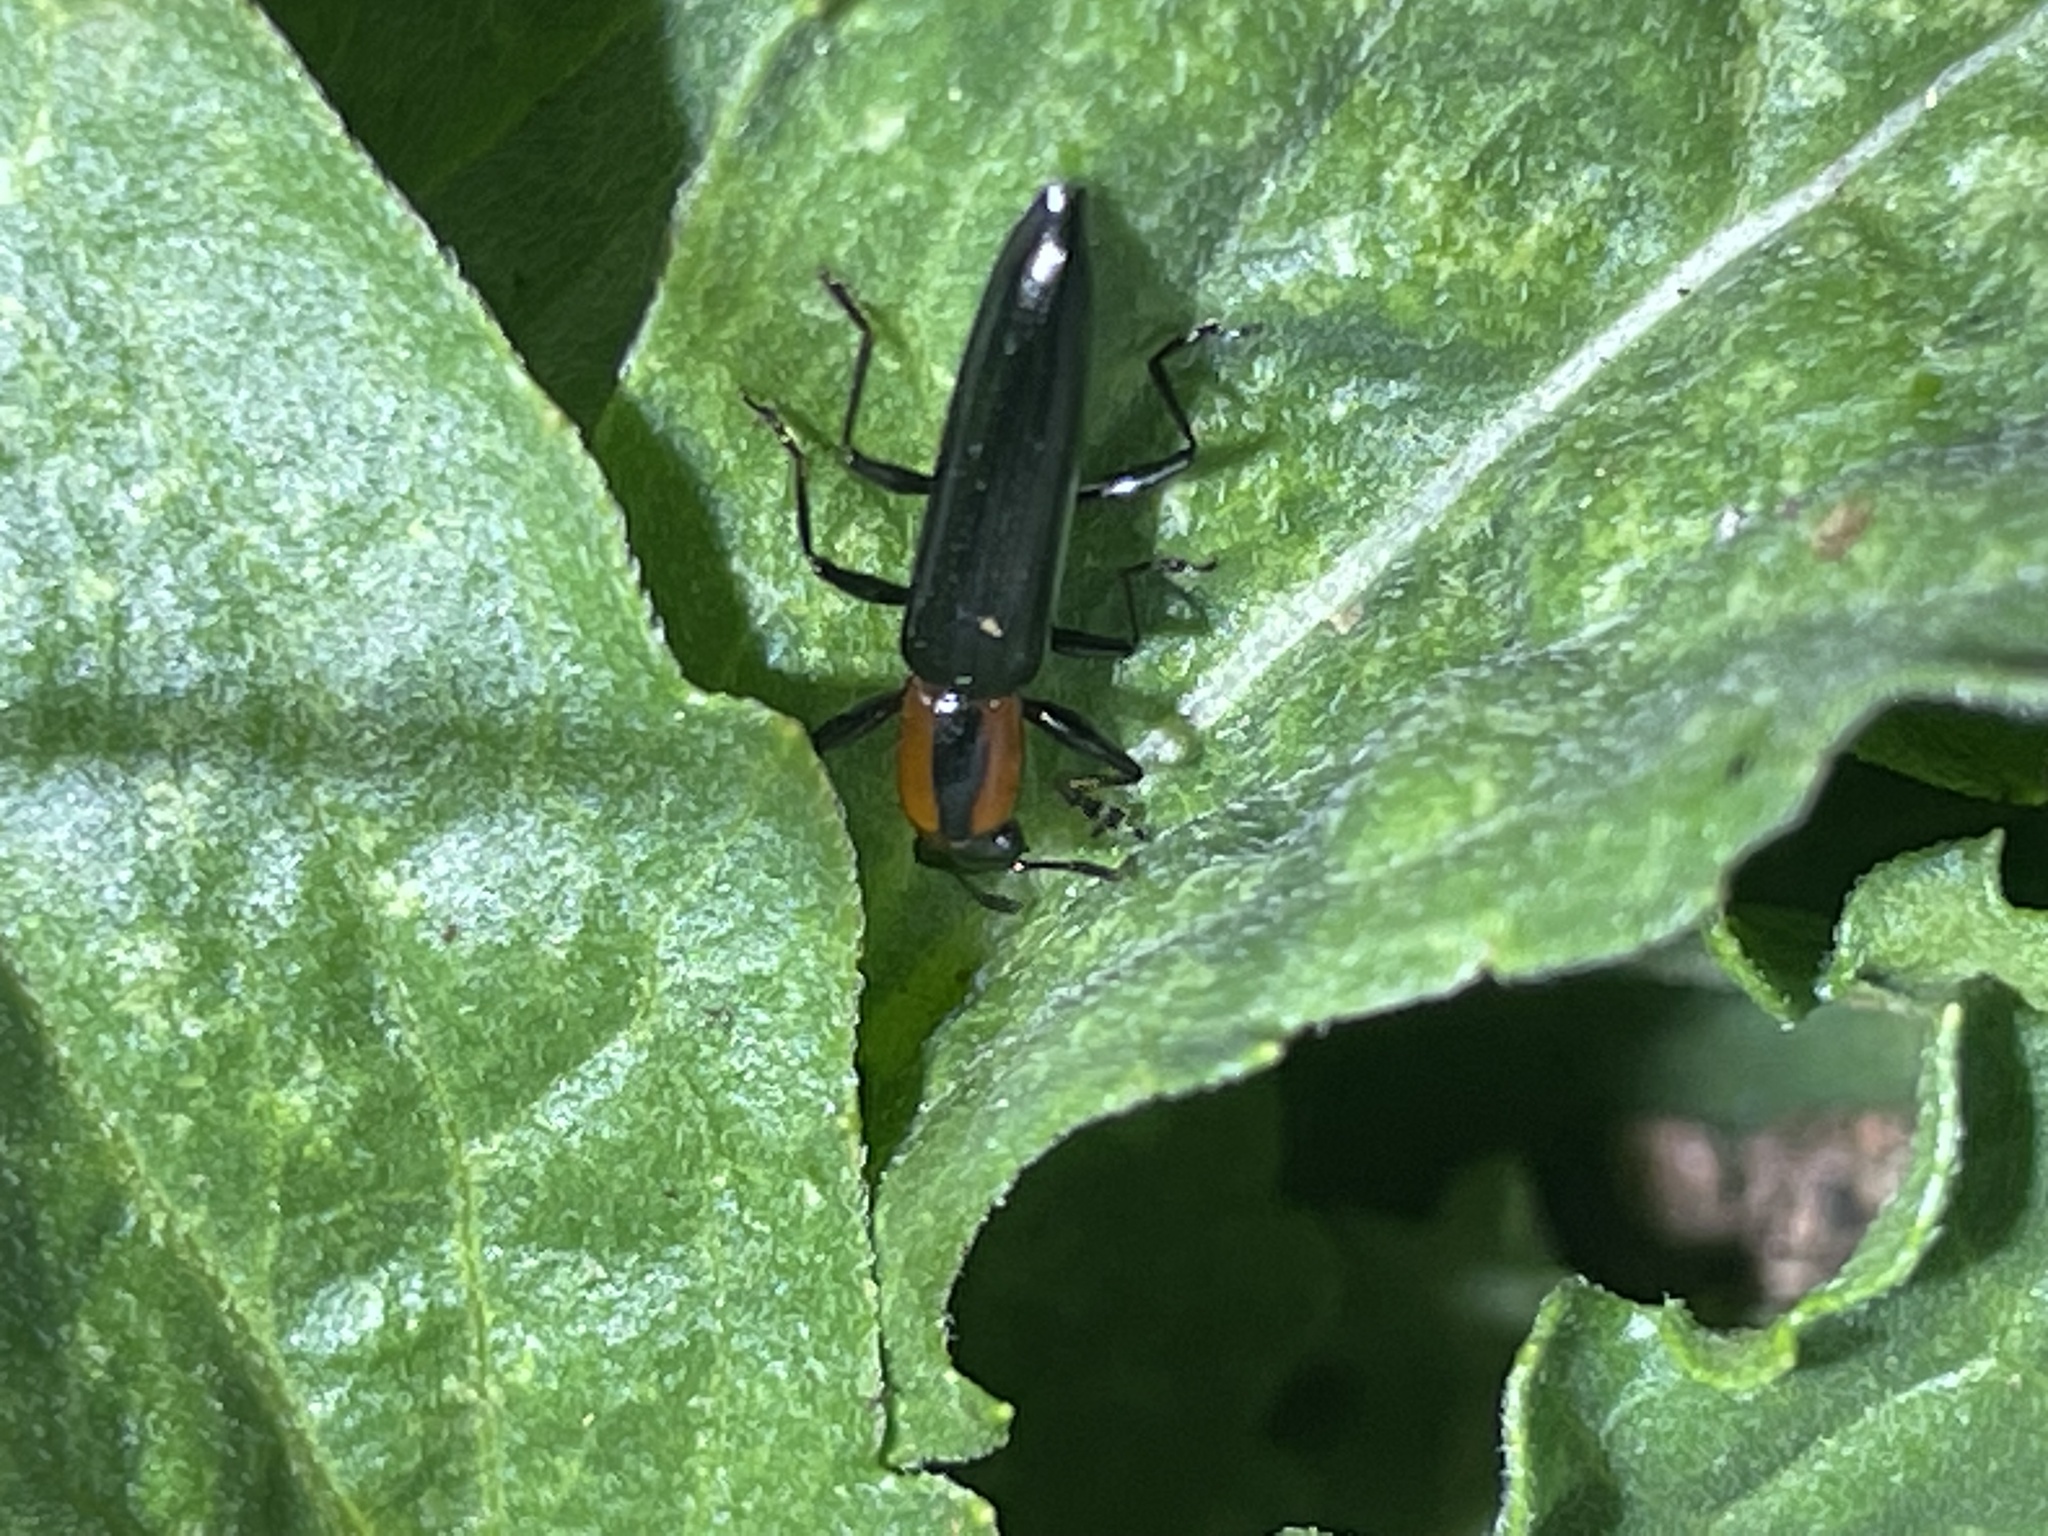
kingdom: Animalia
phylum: Arthropoda
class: Insecta
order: Coleoptera
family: Erotylidae
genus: Acropteroxys
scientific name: Acropteroxys gracilis
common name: Slender lizard beetle
